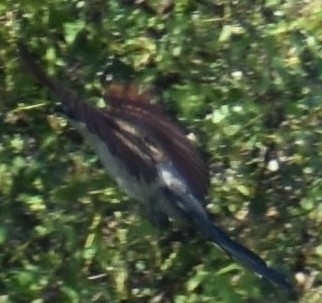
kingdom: Animalia
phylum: Chordata
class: Aves
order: Cuculiformes
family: Cuculidae
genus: Centropus
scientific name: Centropus superciliosus
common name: White-browed coucal
